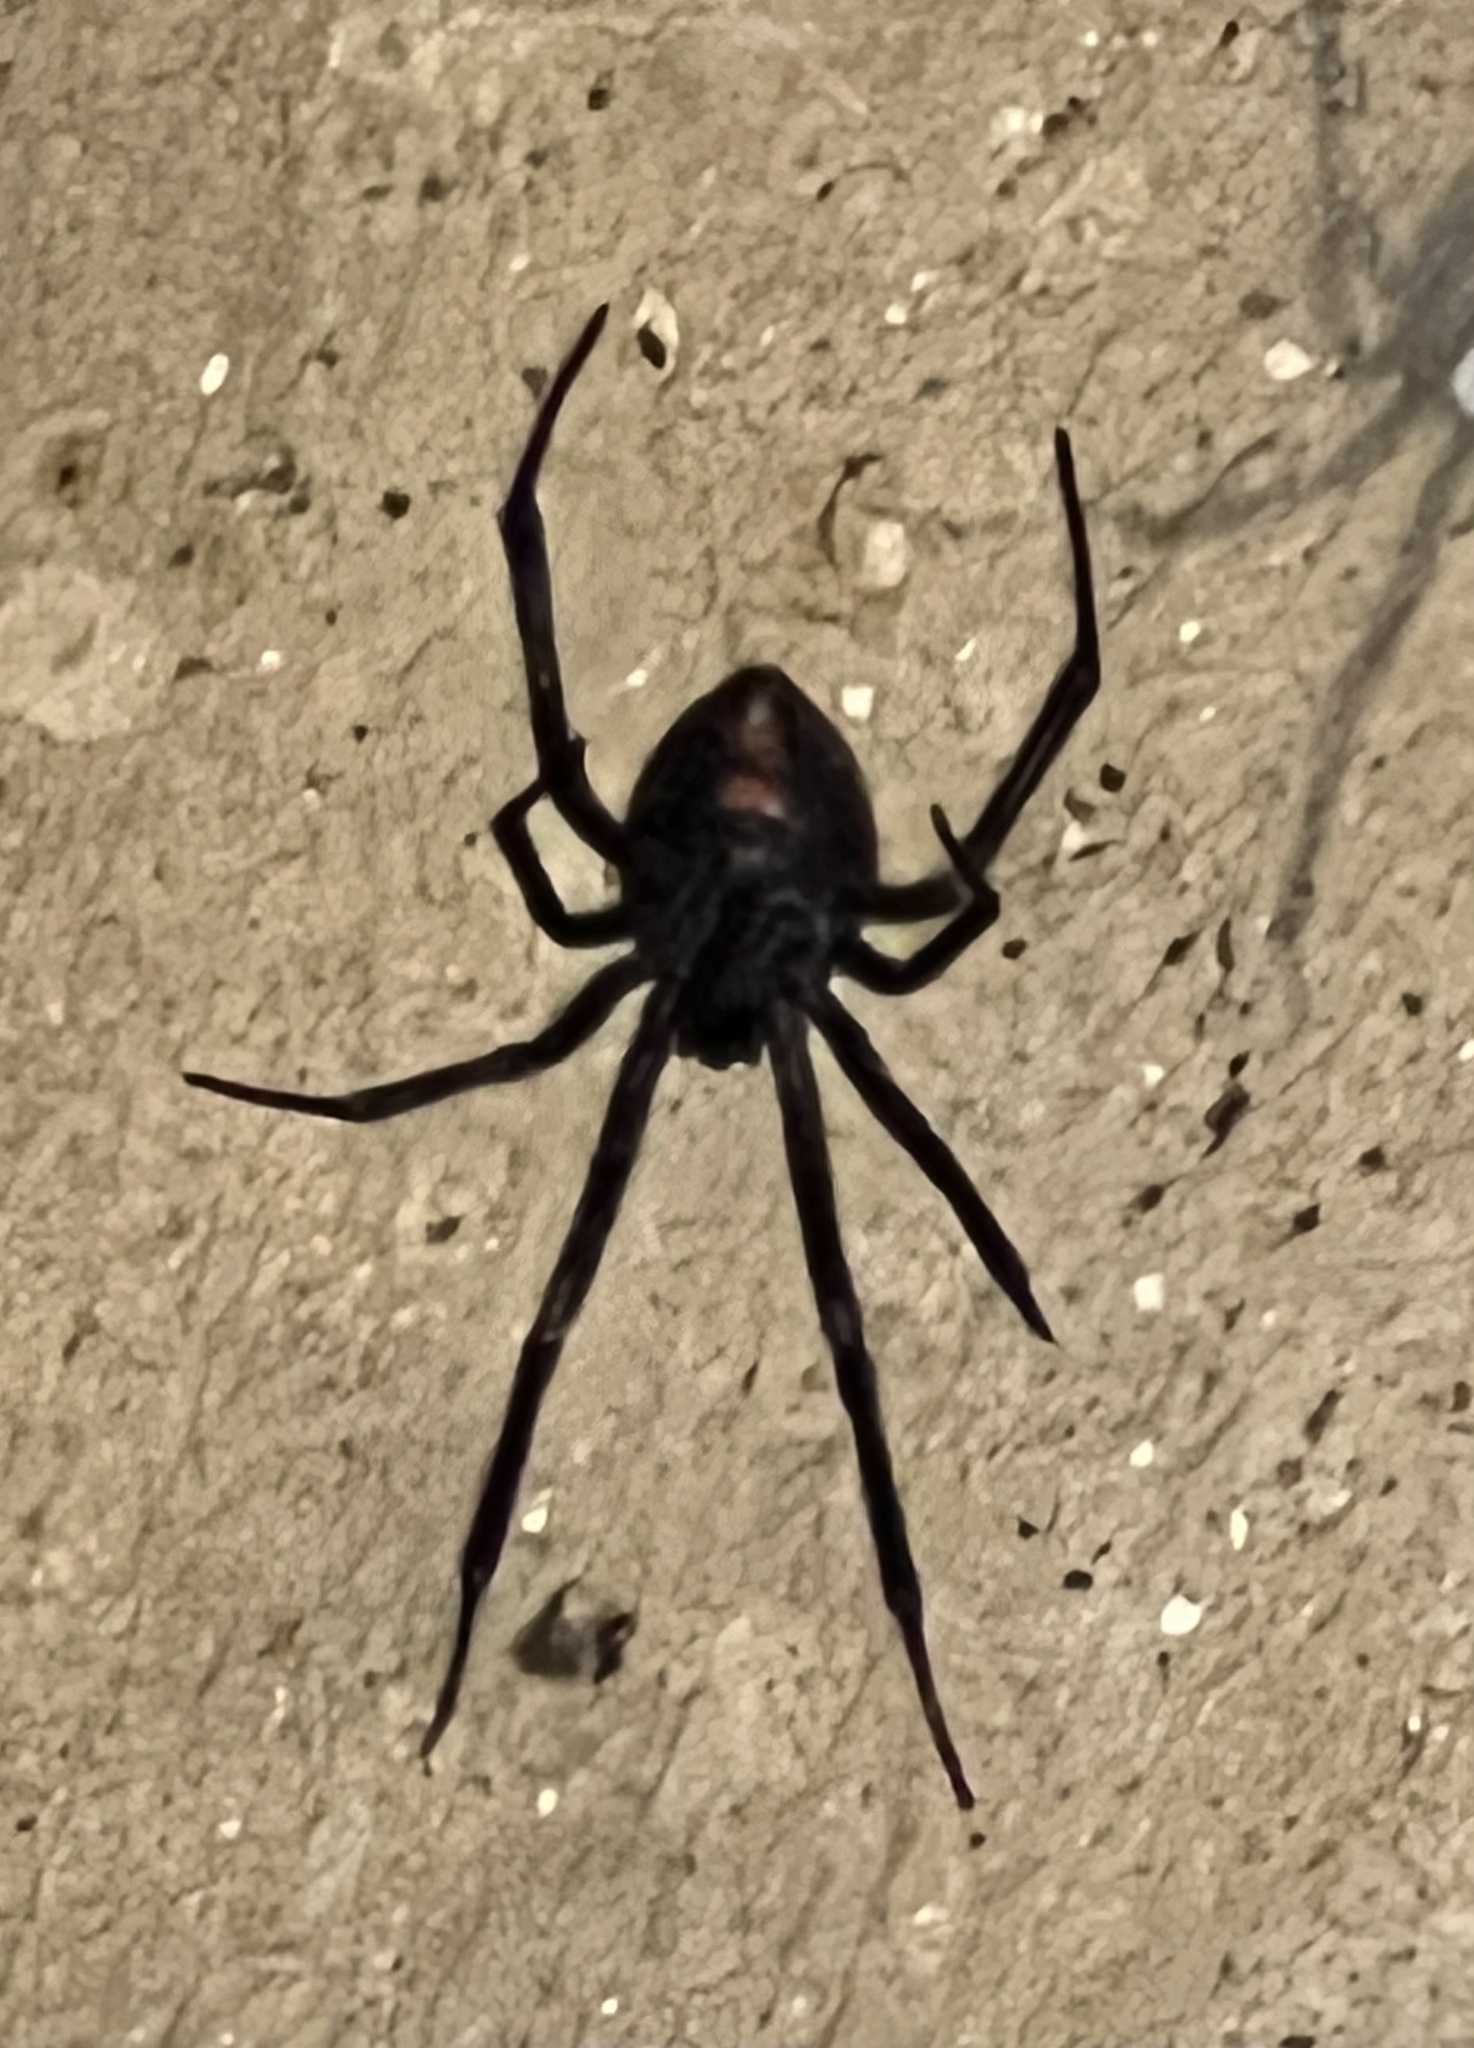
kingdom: Animalia
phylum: Arthropoda
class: Arachnida
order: Araneae
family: Theridiidae
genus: Latrodectus
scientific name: Latrodectus hesperus
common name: Western black widow
